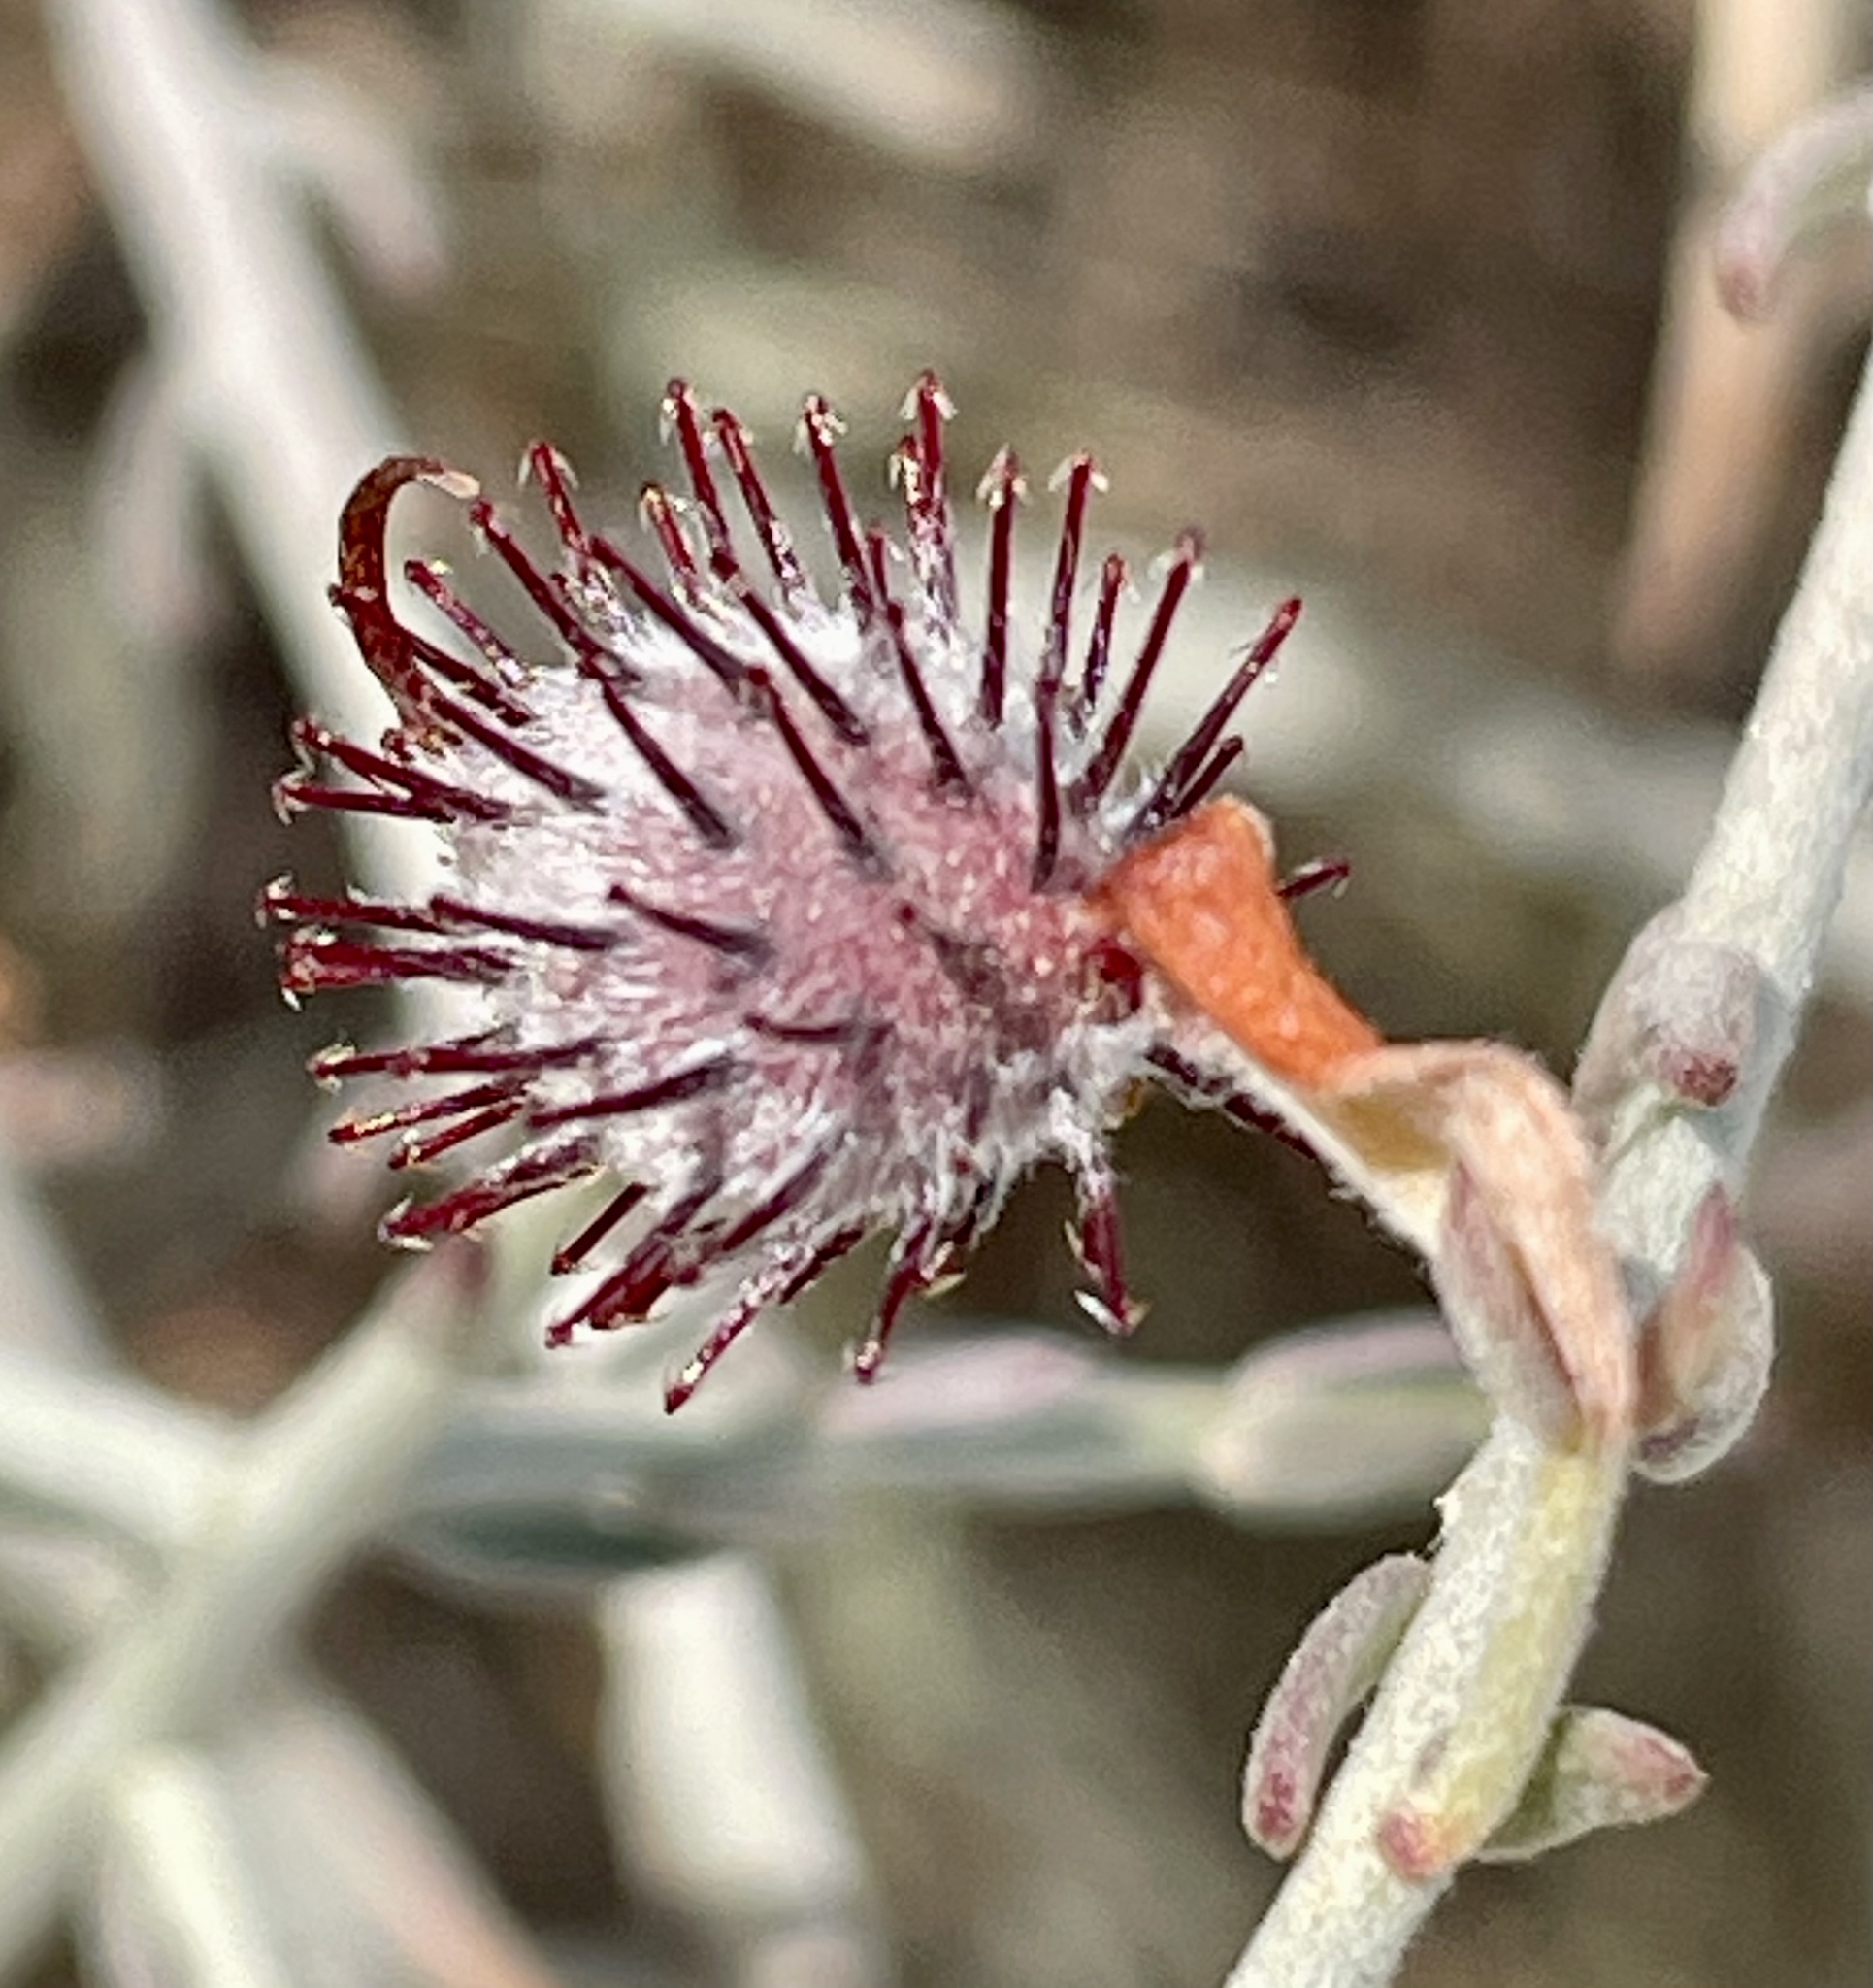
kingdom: Plantae
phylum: Tracheophyta
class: Magnoliopsida
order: Zygophyllales
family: Krameriaceae
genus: Krameria
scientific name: Krameria bicolor
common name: White ratany
